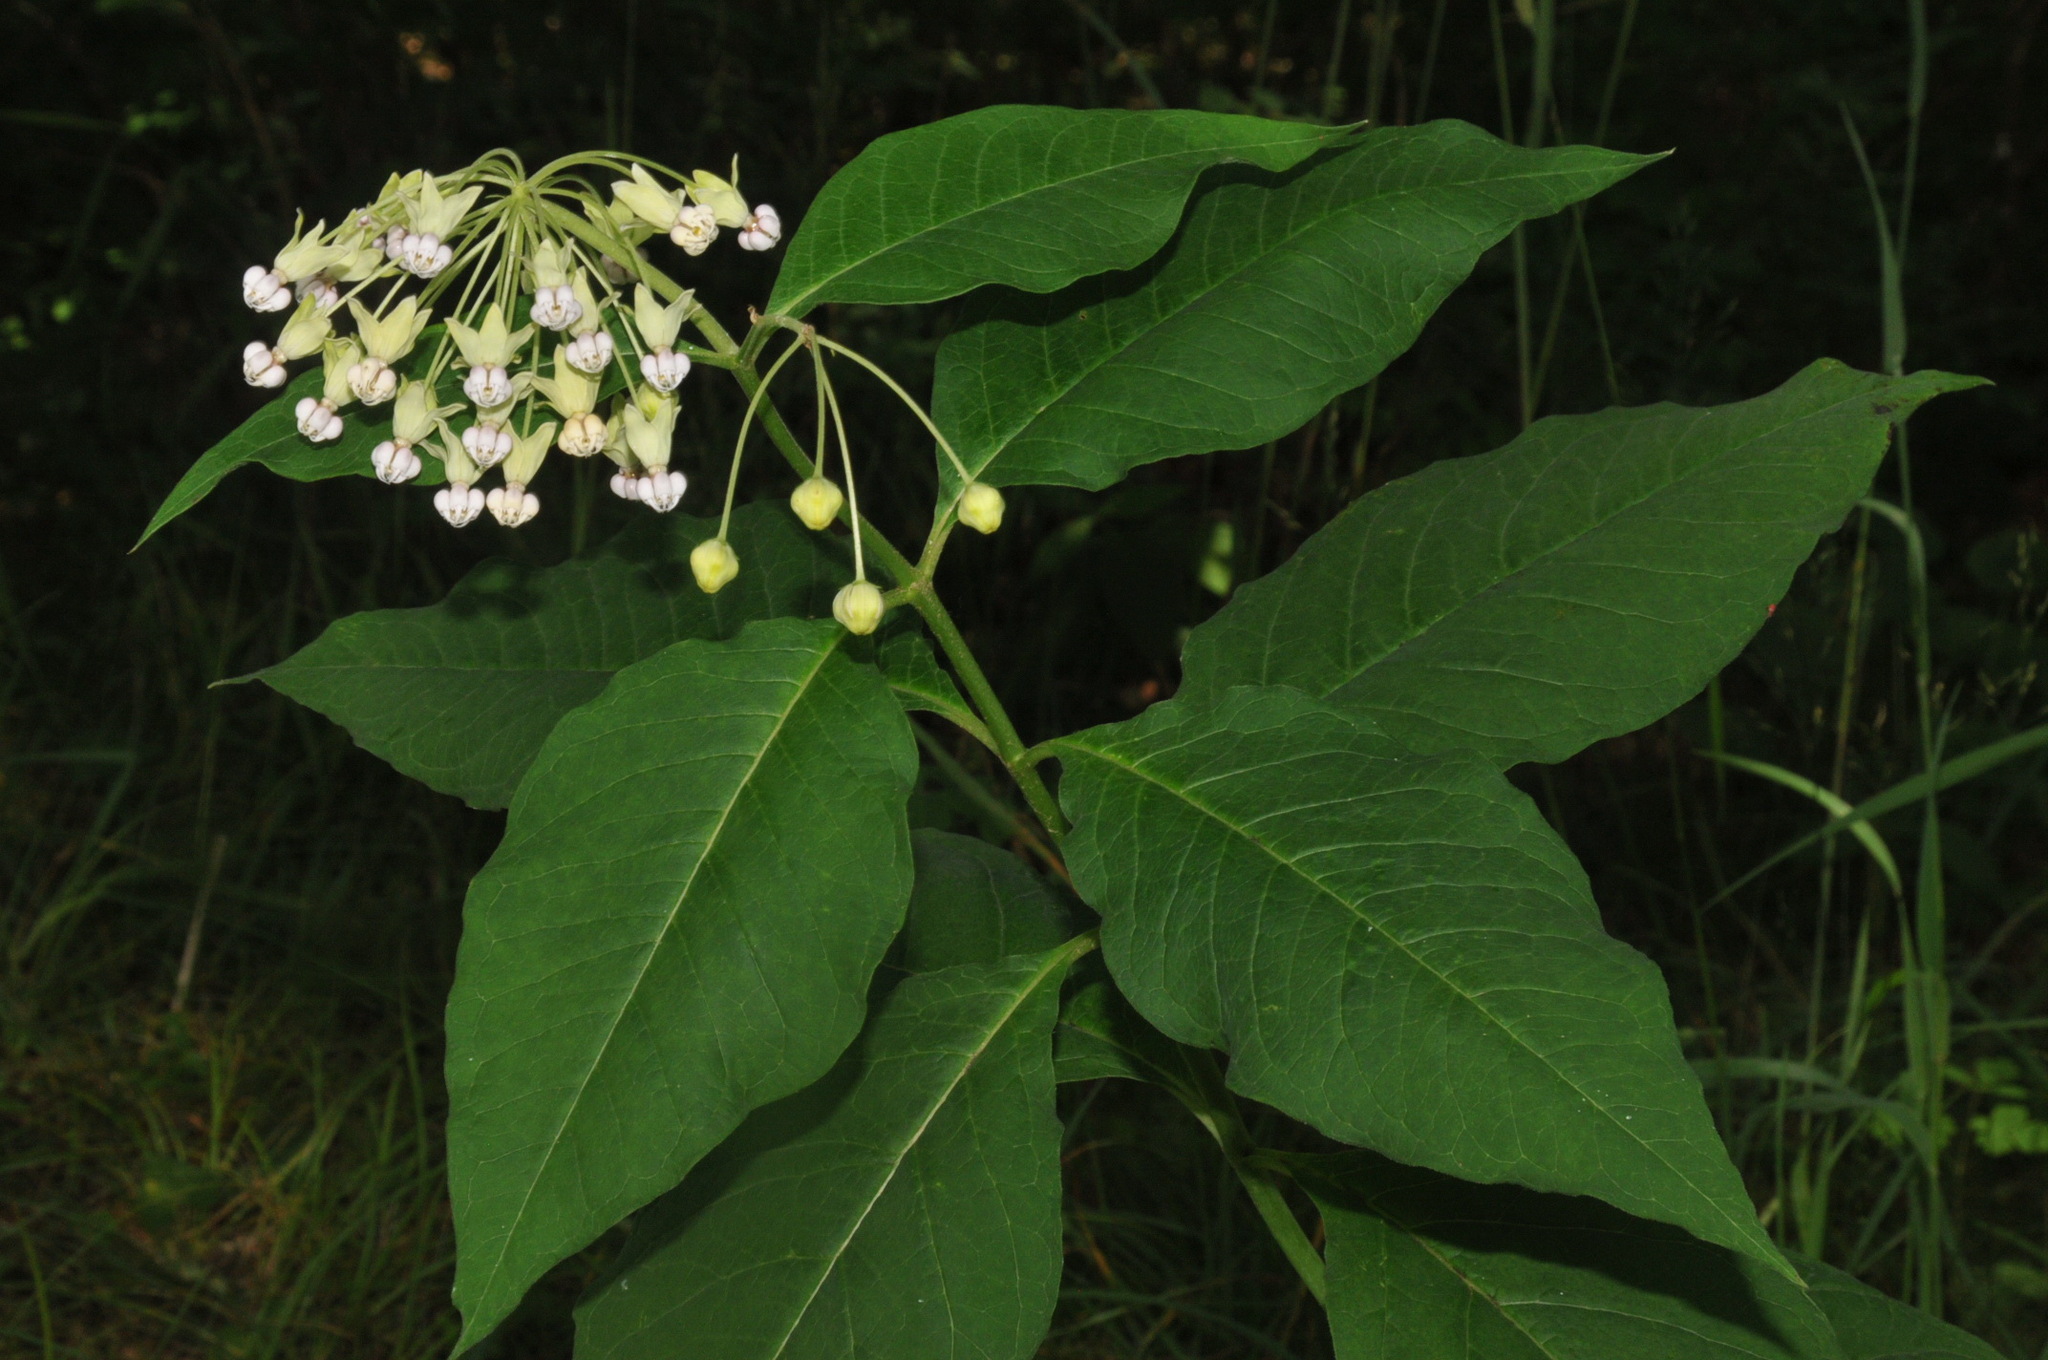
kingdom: Plantae
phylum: Tracheophyta
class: Magnoliopsida
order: Gentianales
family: Apocynaceae
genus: Asclepias
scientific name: Asclepias exaltata
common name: Poke milkweed
